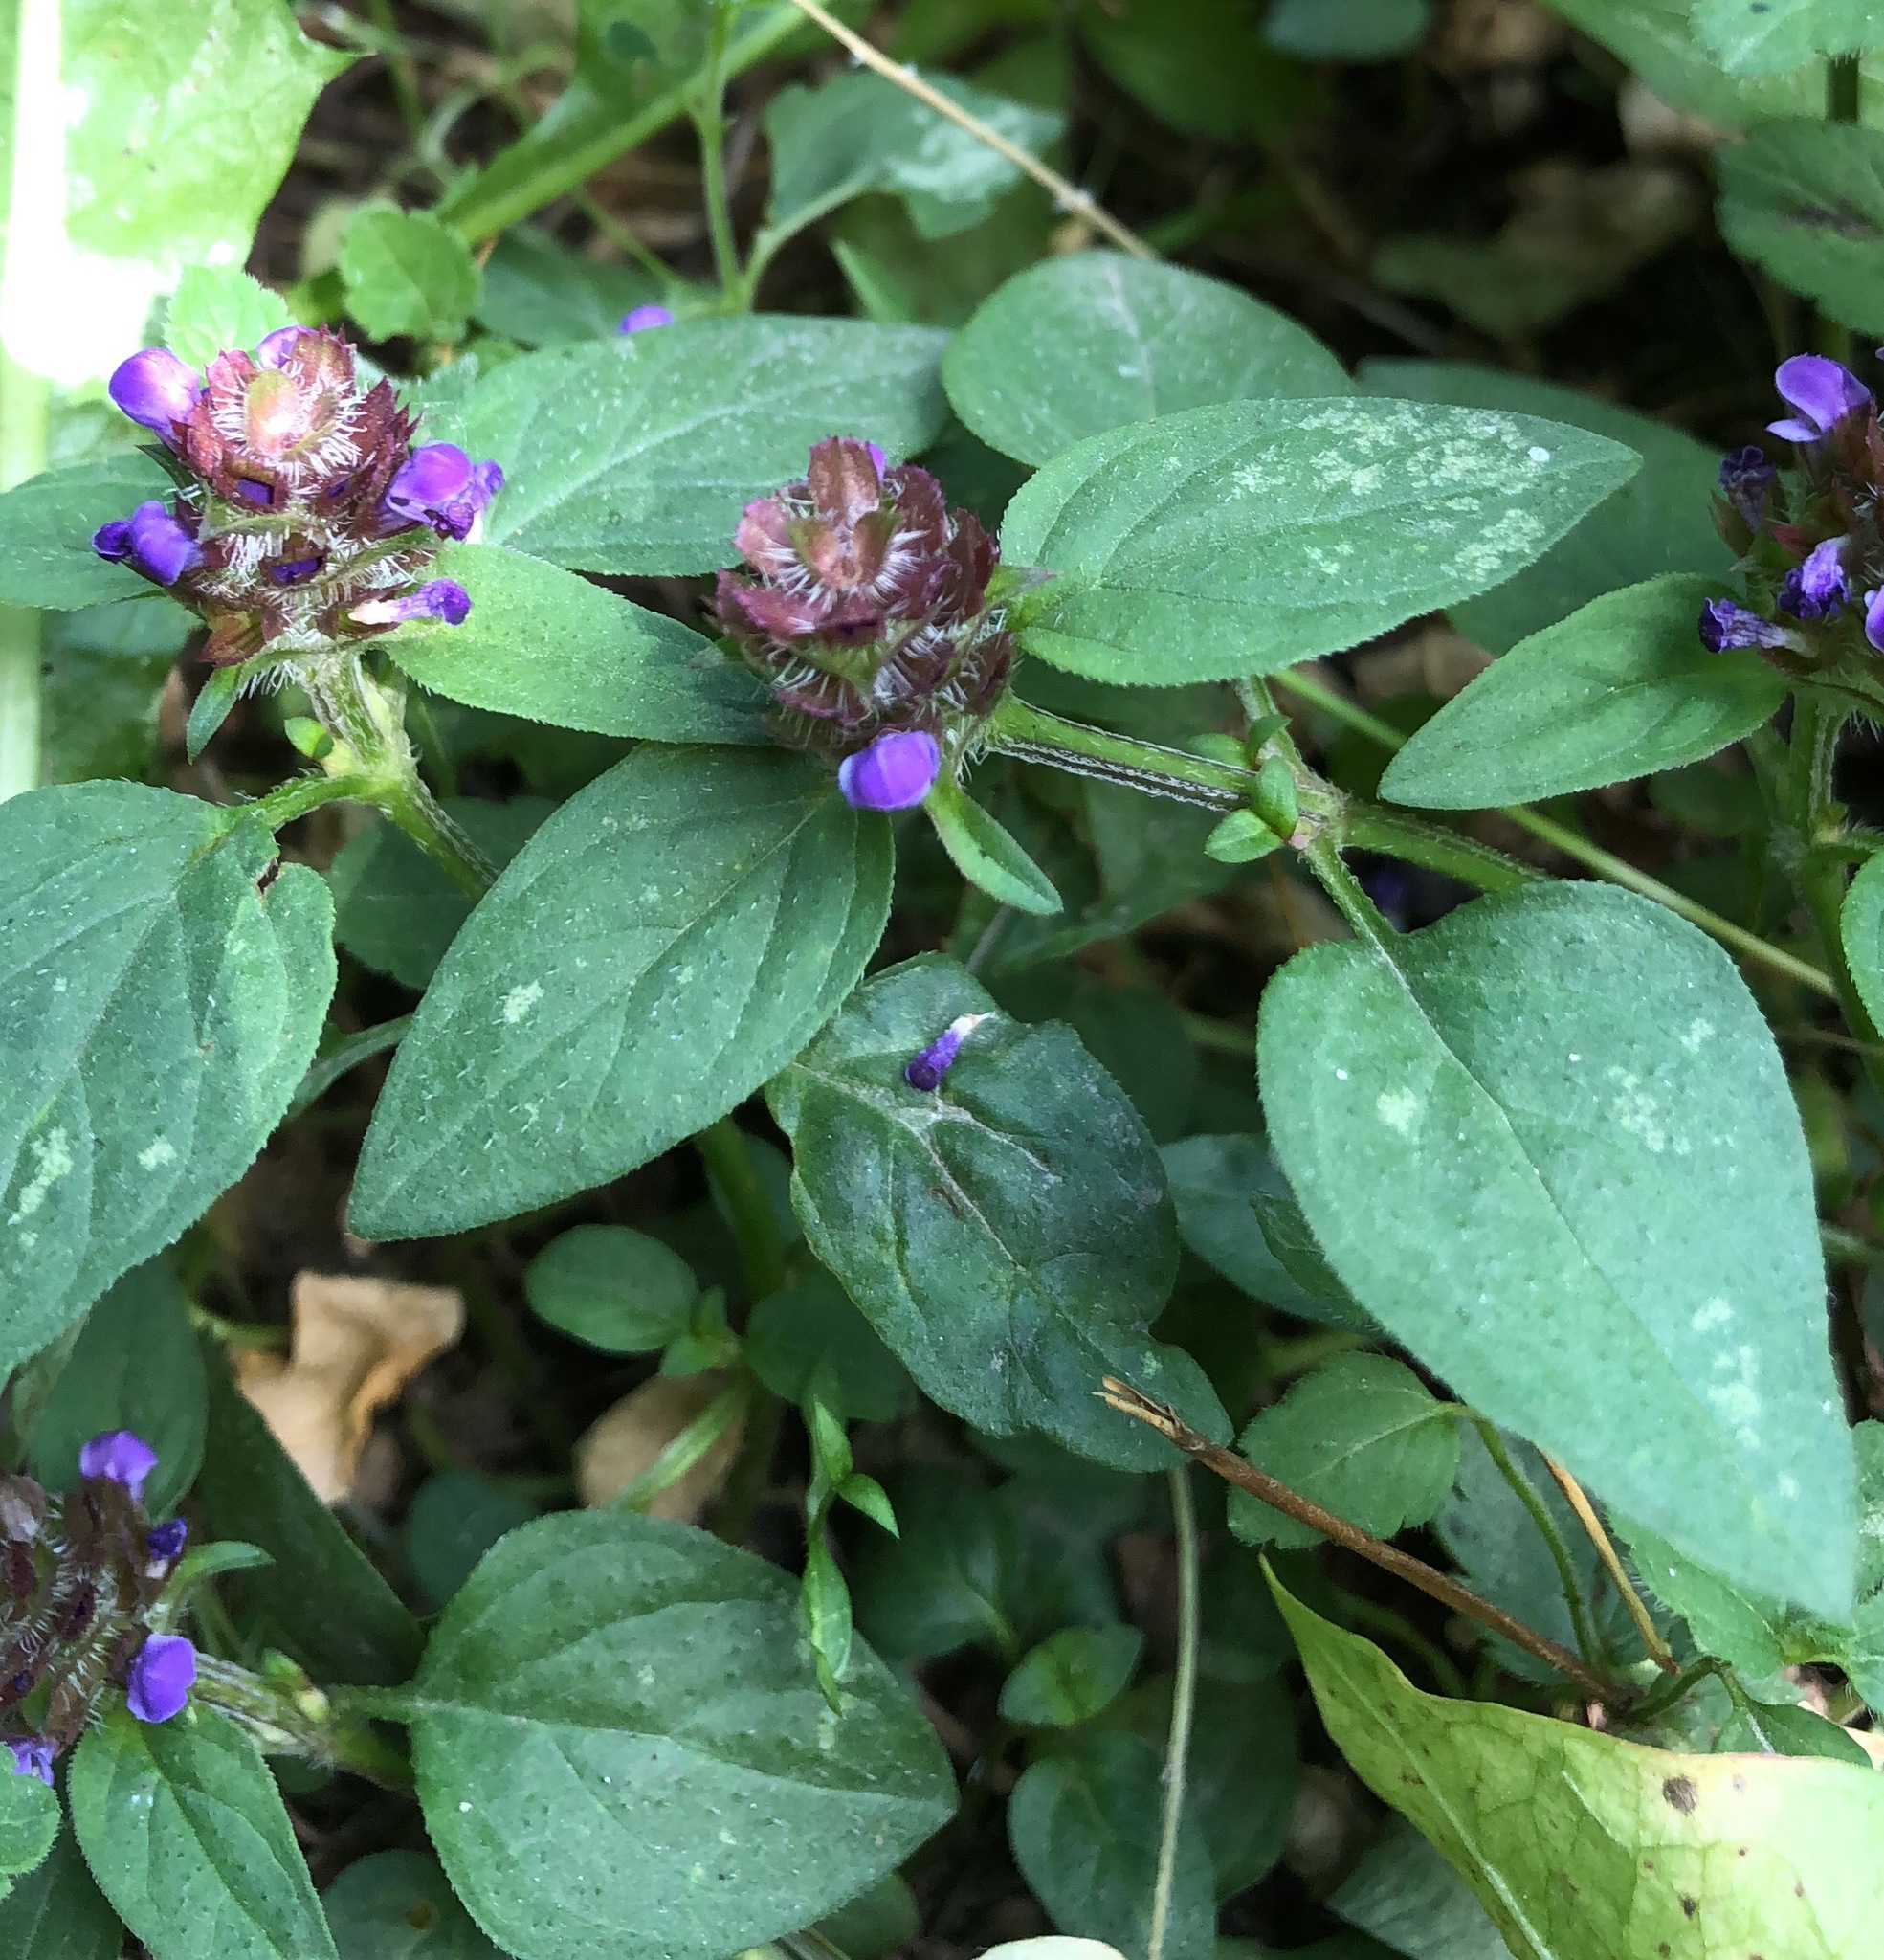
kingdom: Plantae
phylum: Tracheophyta
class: Magnoliopsida
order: Lamiales
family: Lamiaceae
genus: Prunella
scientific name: Prunella vulgaris
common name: Heal-all
